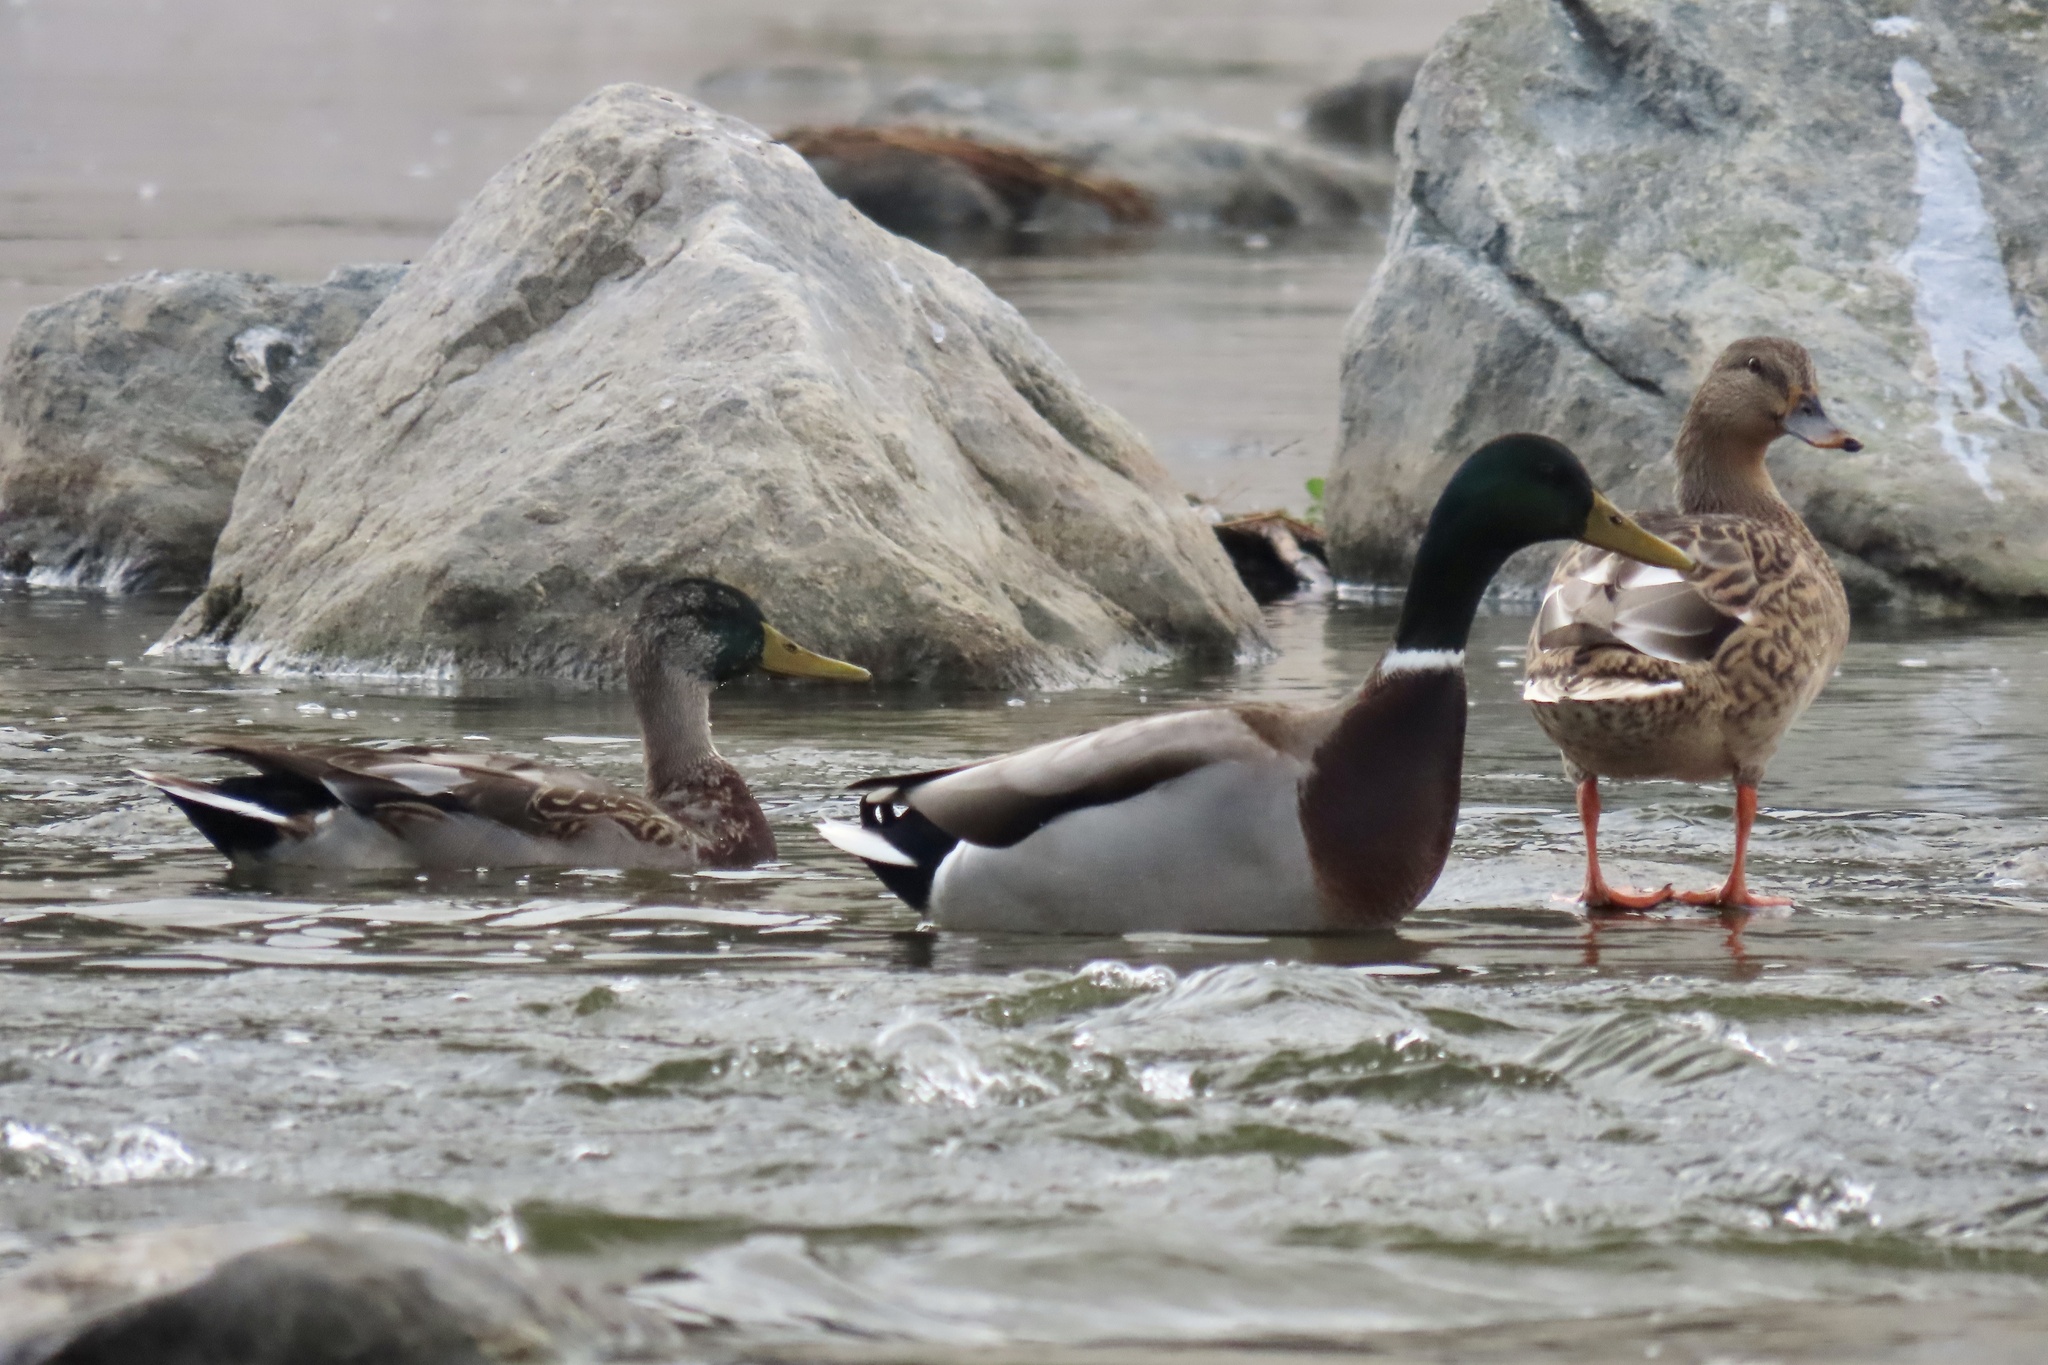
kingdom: Animalia
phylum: Chordata
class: Aves
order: Anseriformes
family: Anatidae
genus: Anas
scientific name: Anas platyrhynchos
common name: Mallard
